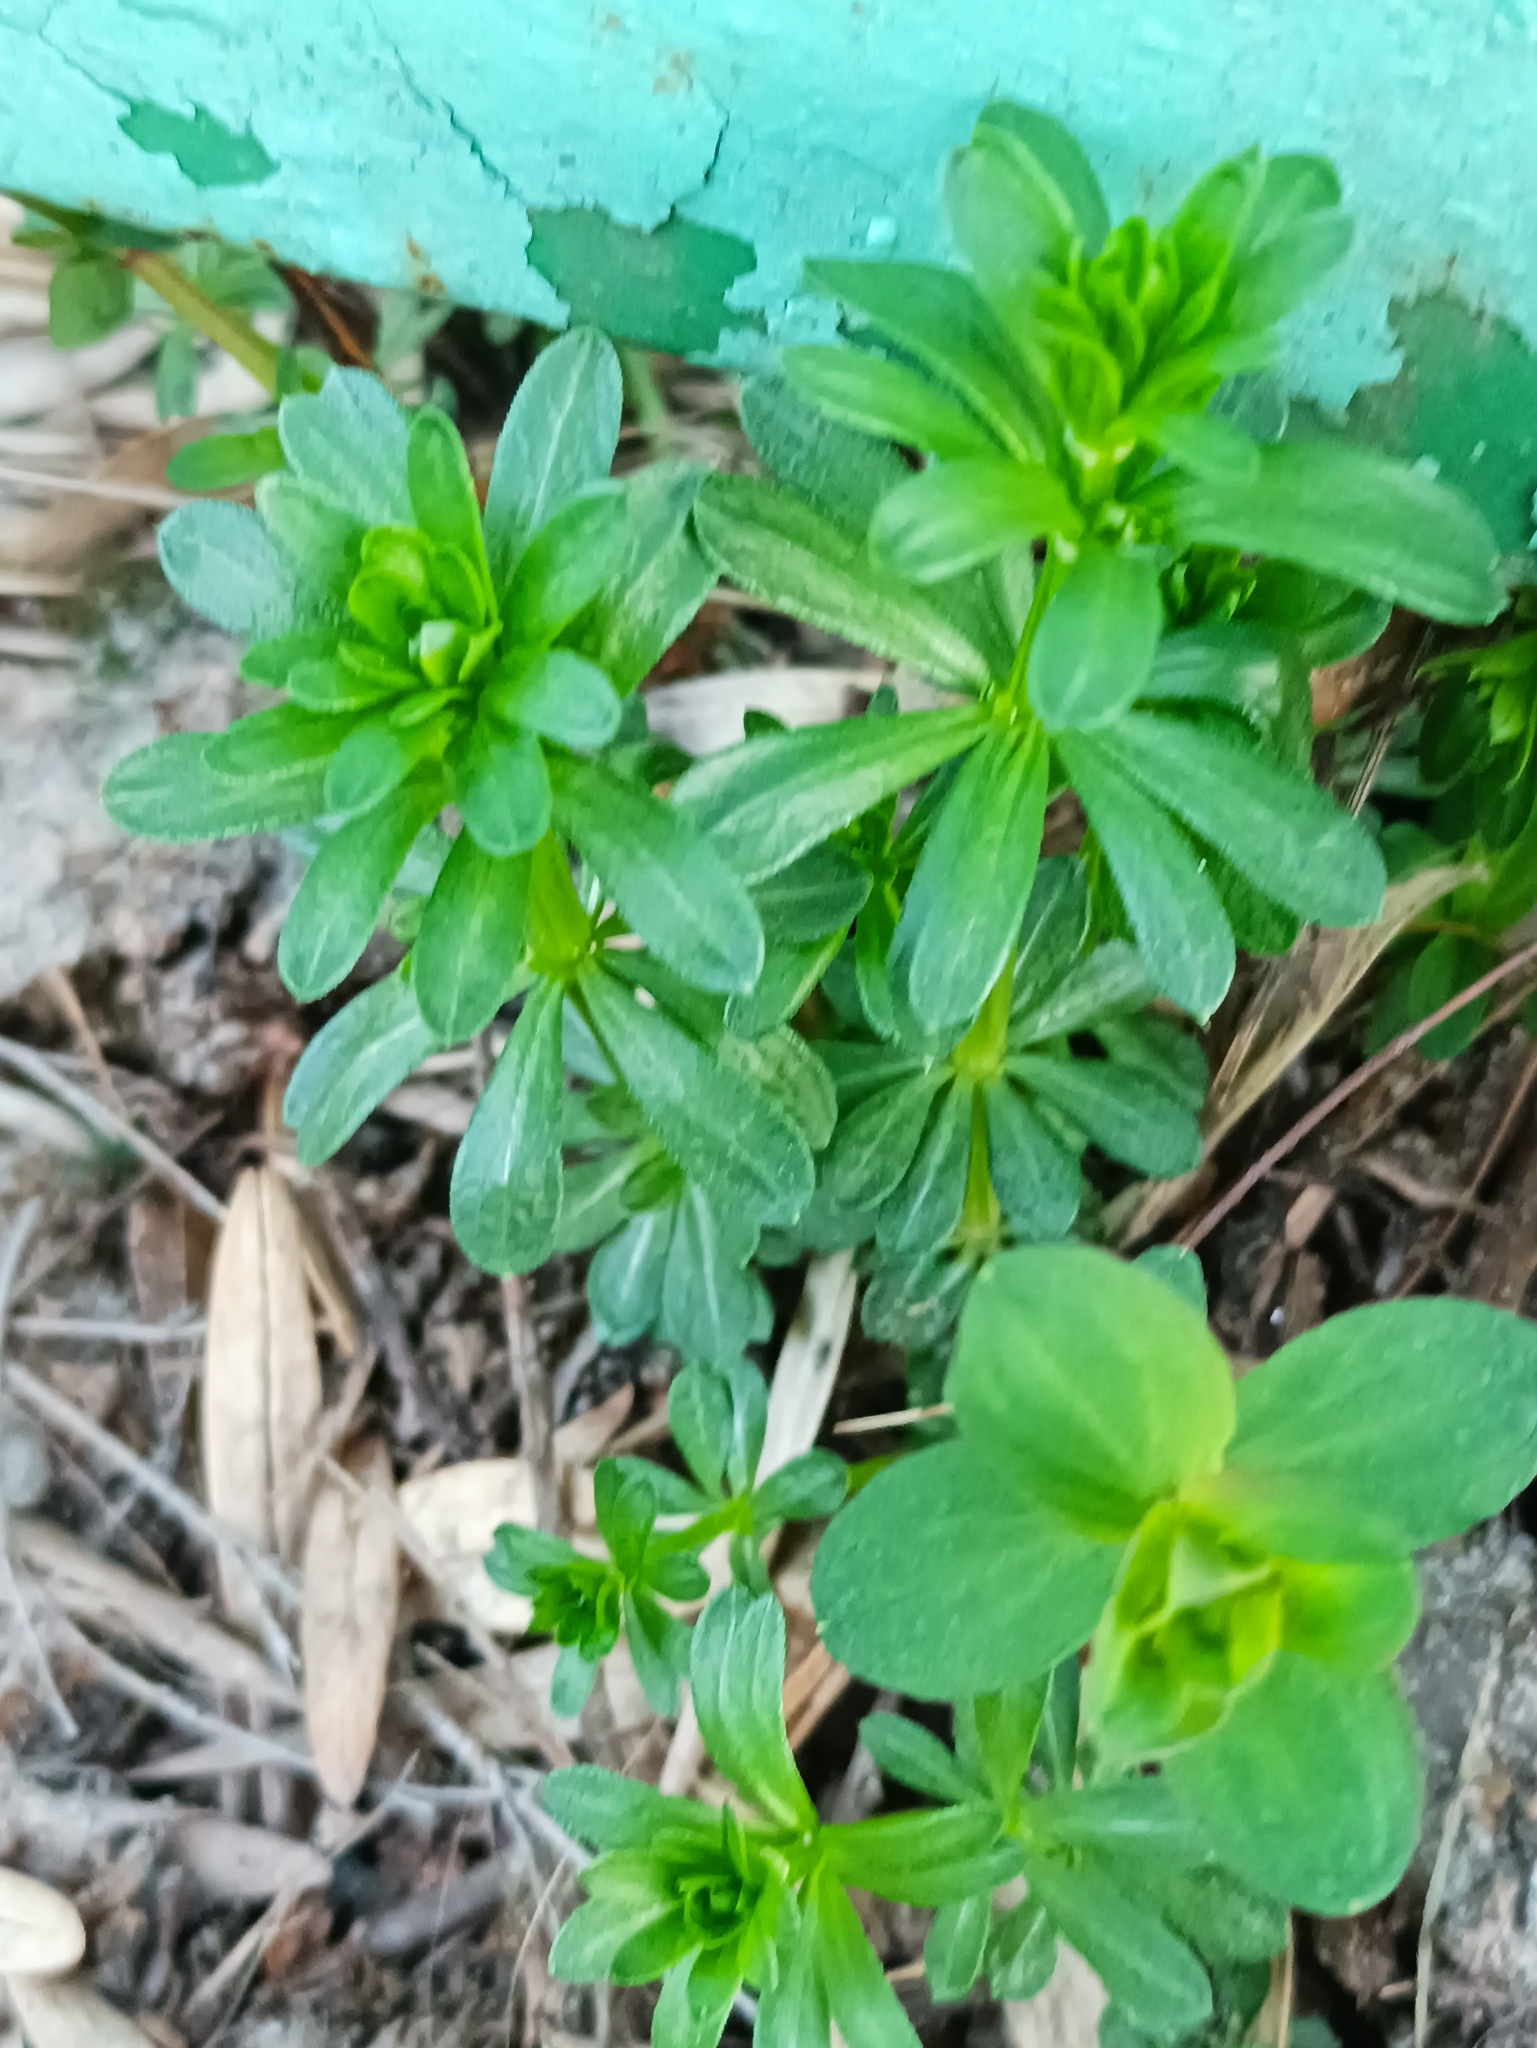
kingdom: Plantae
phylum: Tracheophyta
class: Magnoliopsida
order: Gentianales
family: Rubiaceae
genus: Galium
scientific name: Galium mollugo
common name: Hedge bedstraw
